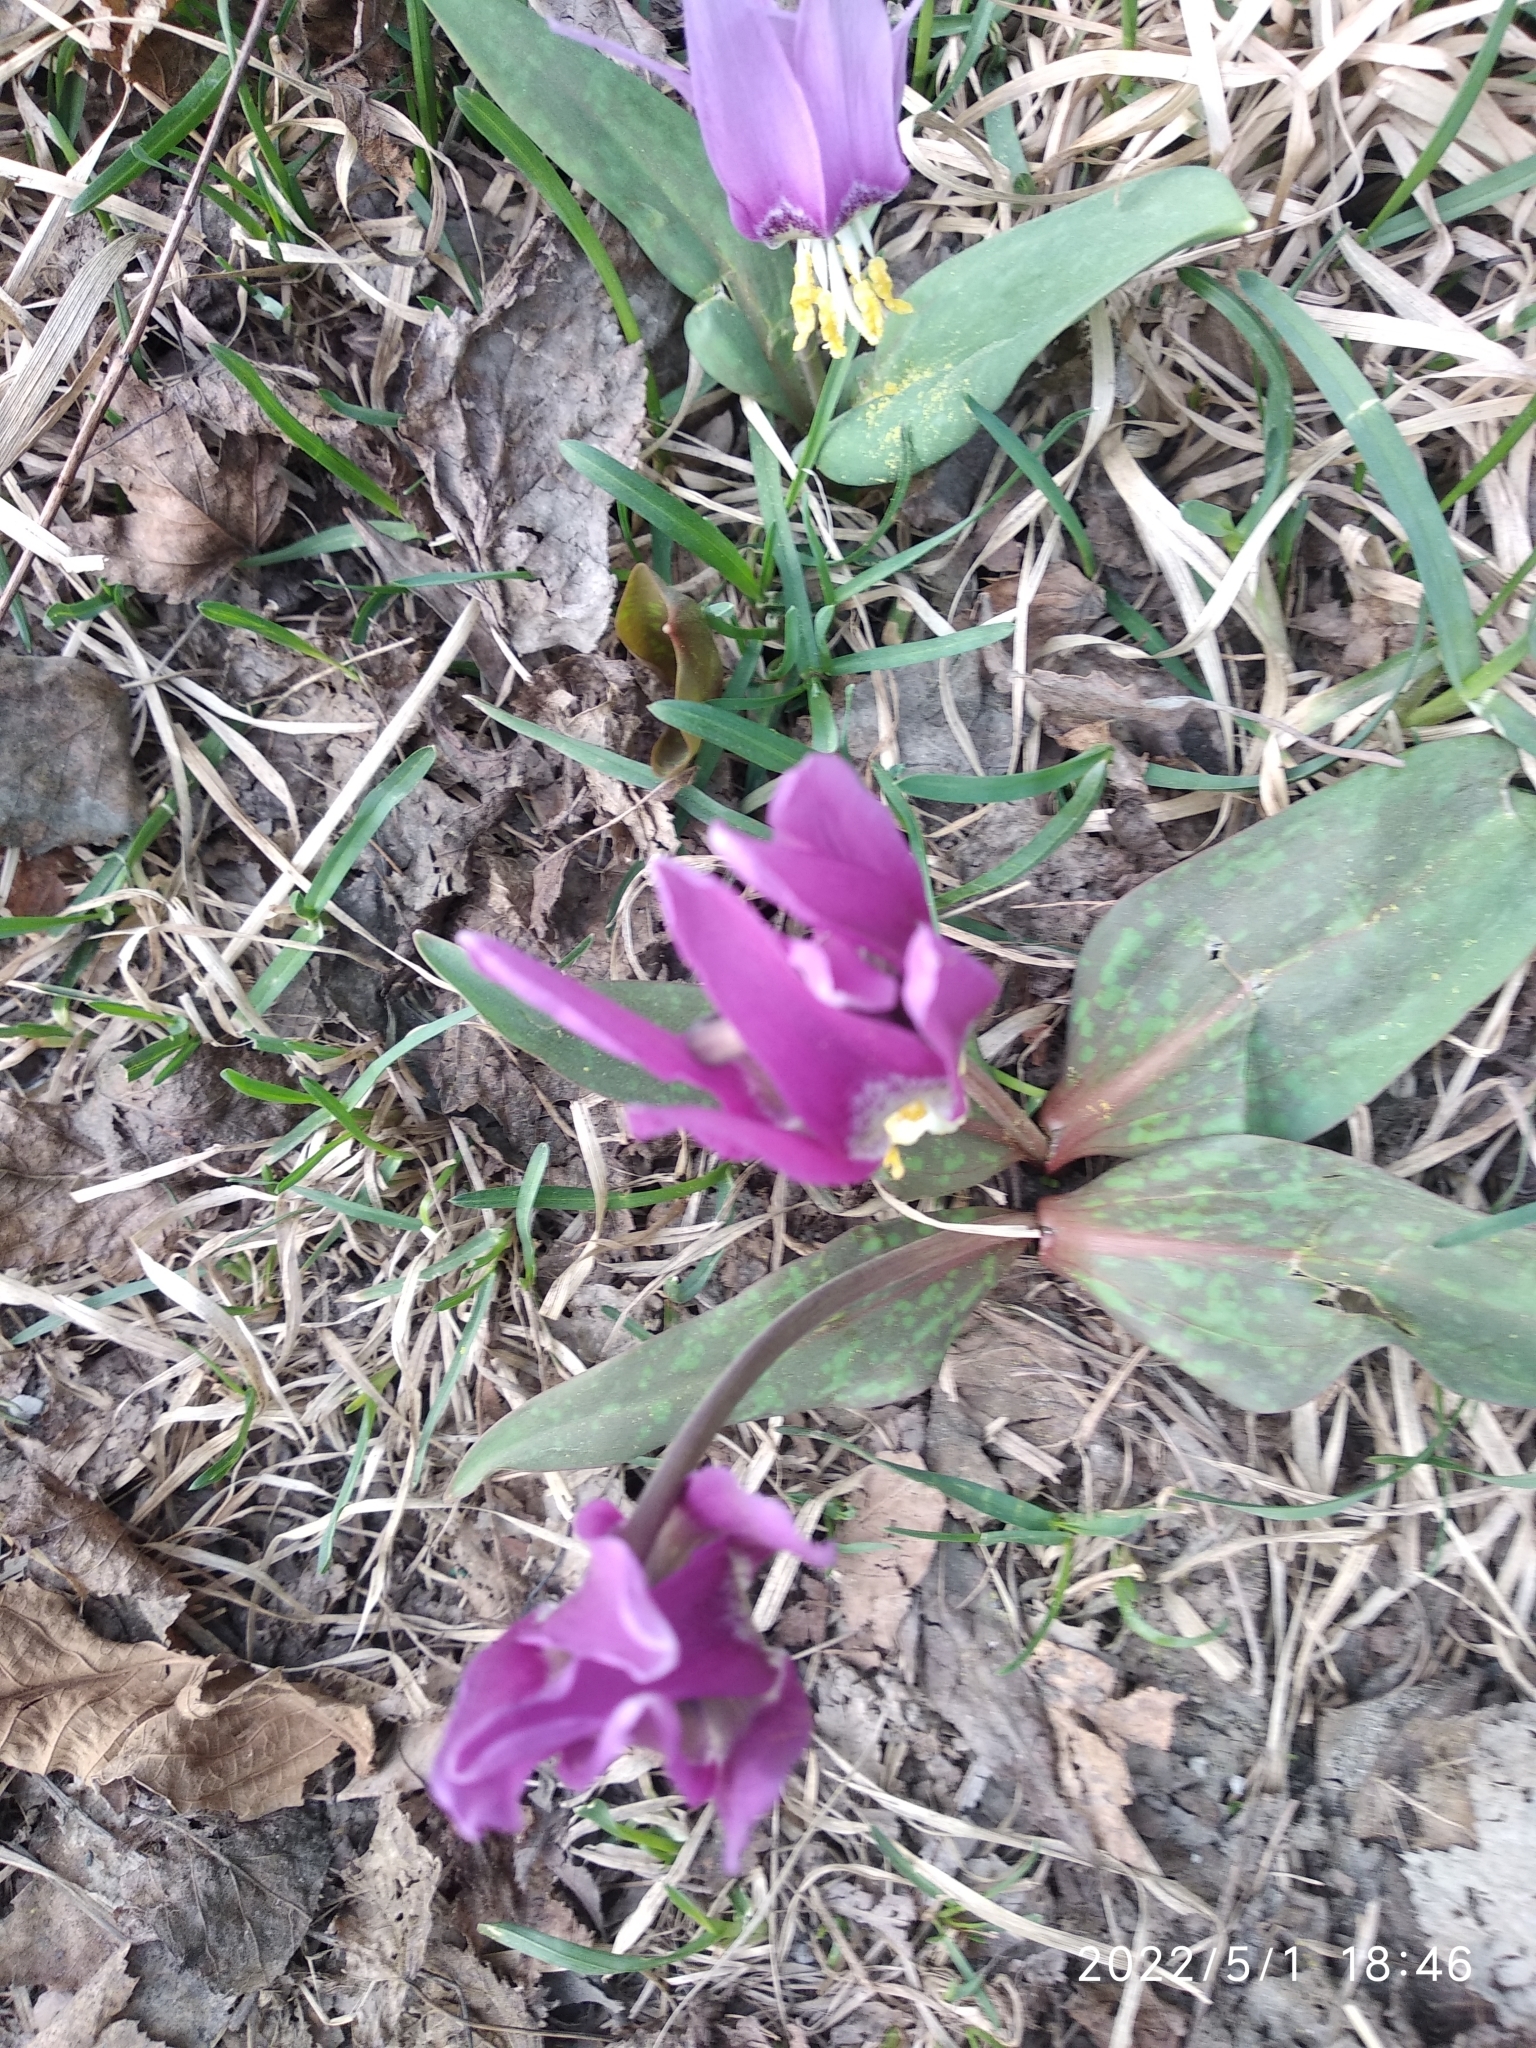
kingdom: Plantae
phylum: Tracheophyta
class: Liliopsida
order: Liliales
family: Liliaceae
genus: Erythronium
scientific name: Erythronium sibiricum
